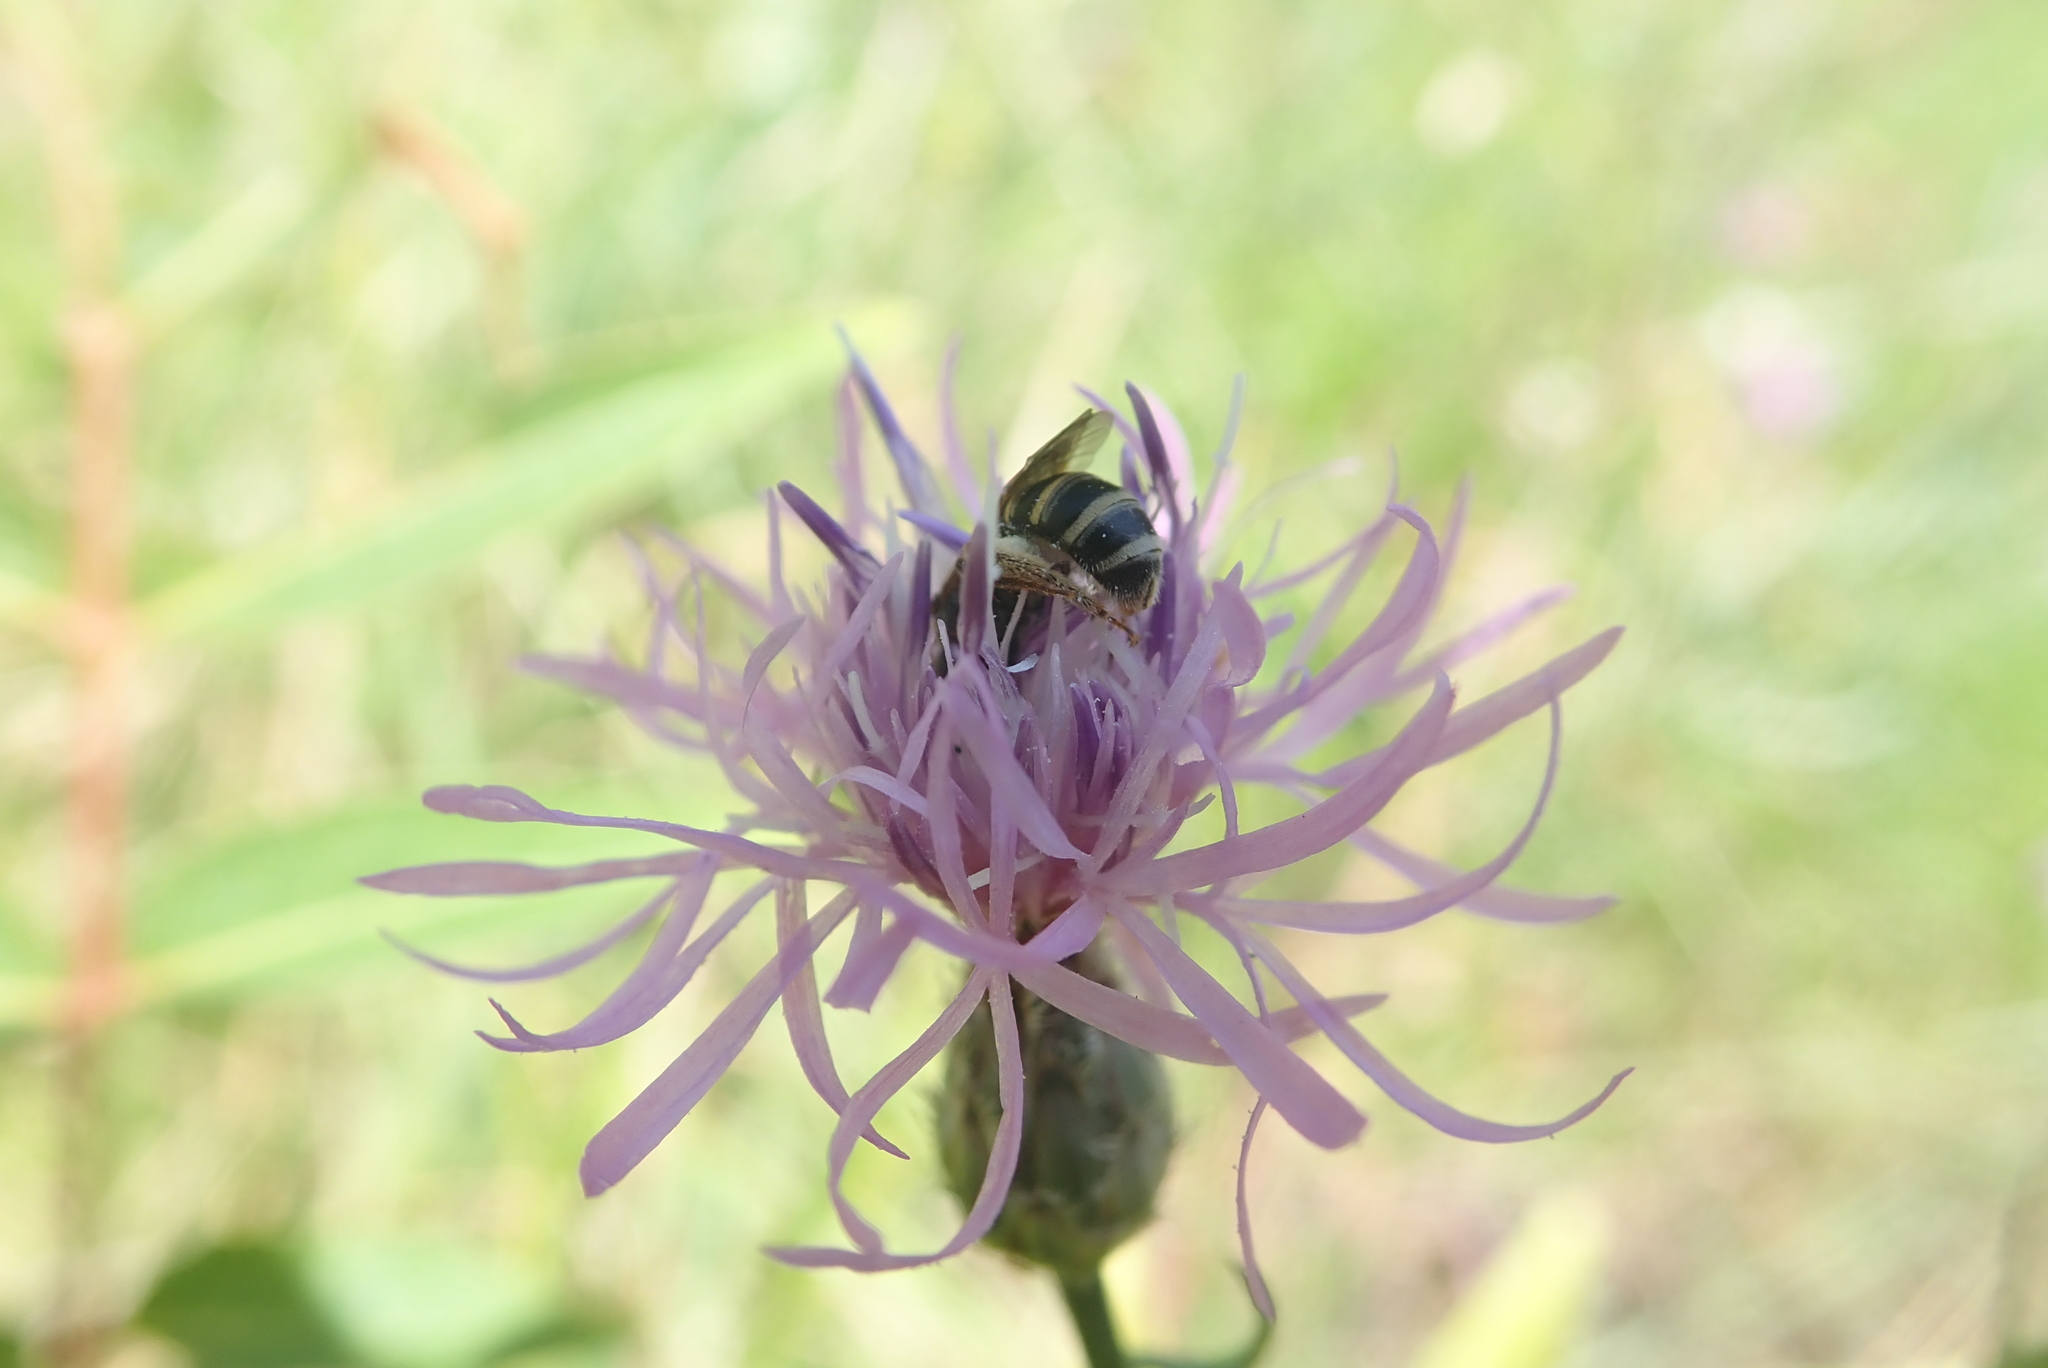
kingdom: Animalia
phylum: Arthropoda
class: Insecta
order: Hymenoptera
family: Halictidae
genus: Halictus
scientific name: Halictus ligatus
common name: Ligated furrow bee
